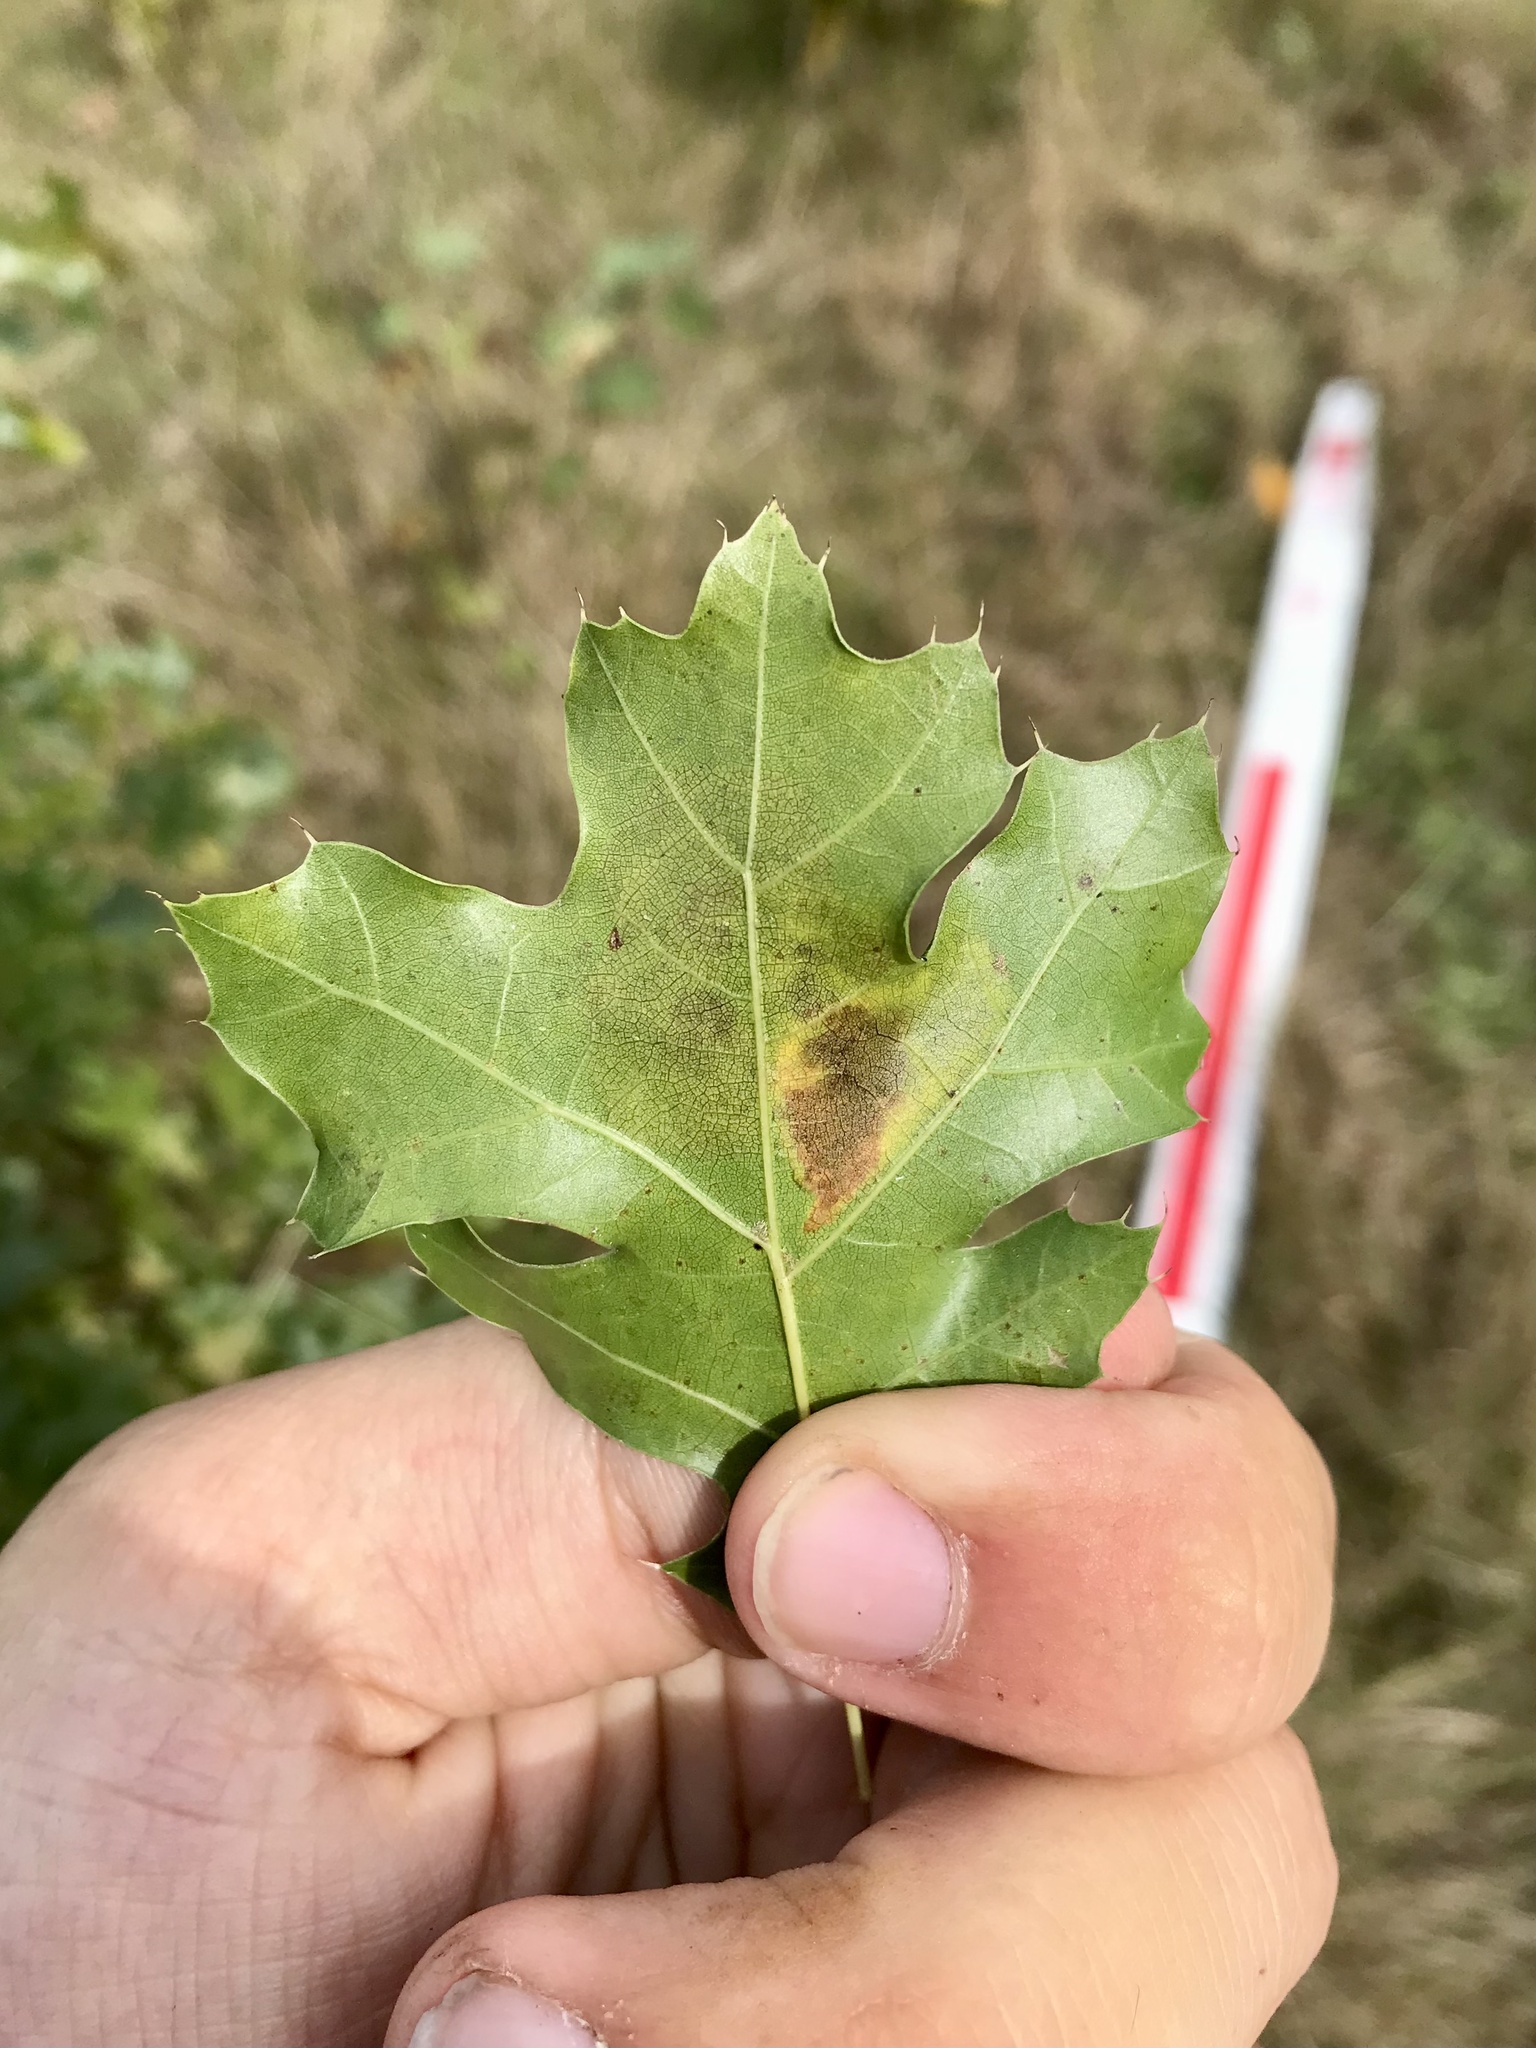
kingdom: Animalia
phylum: Arthropoda
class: Insecta
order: Hymenoptera
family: Tenthredinidae
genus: Profenusa
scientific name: Profenusa thomsoni
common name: Amber-marked birch leafminer
